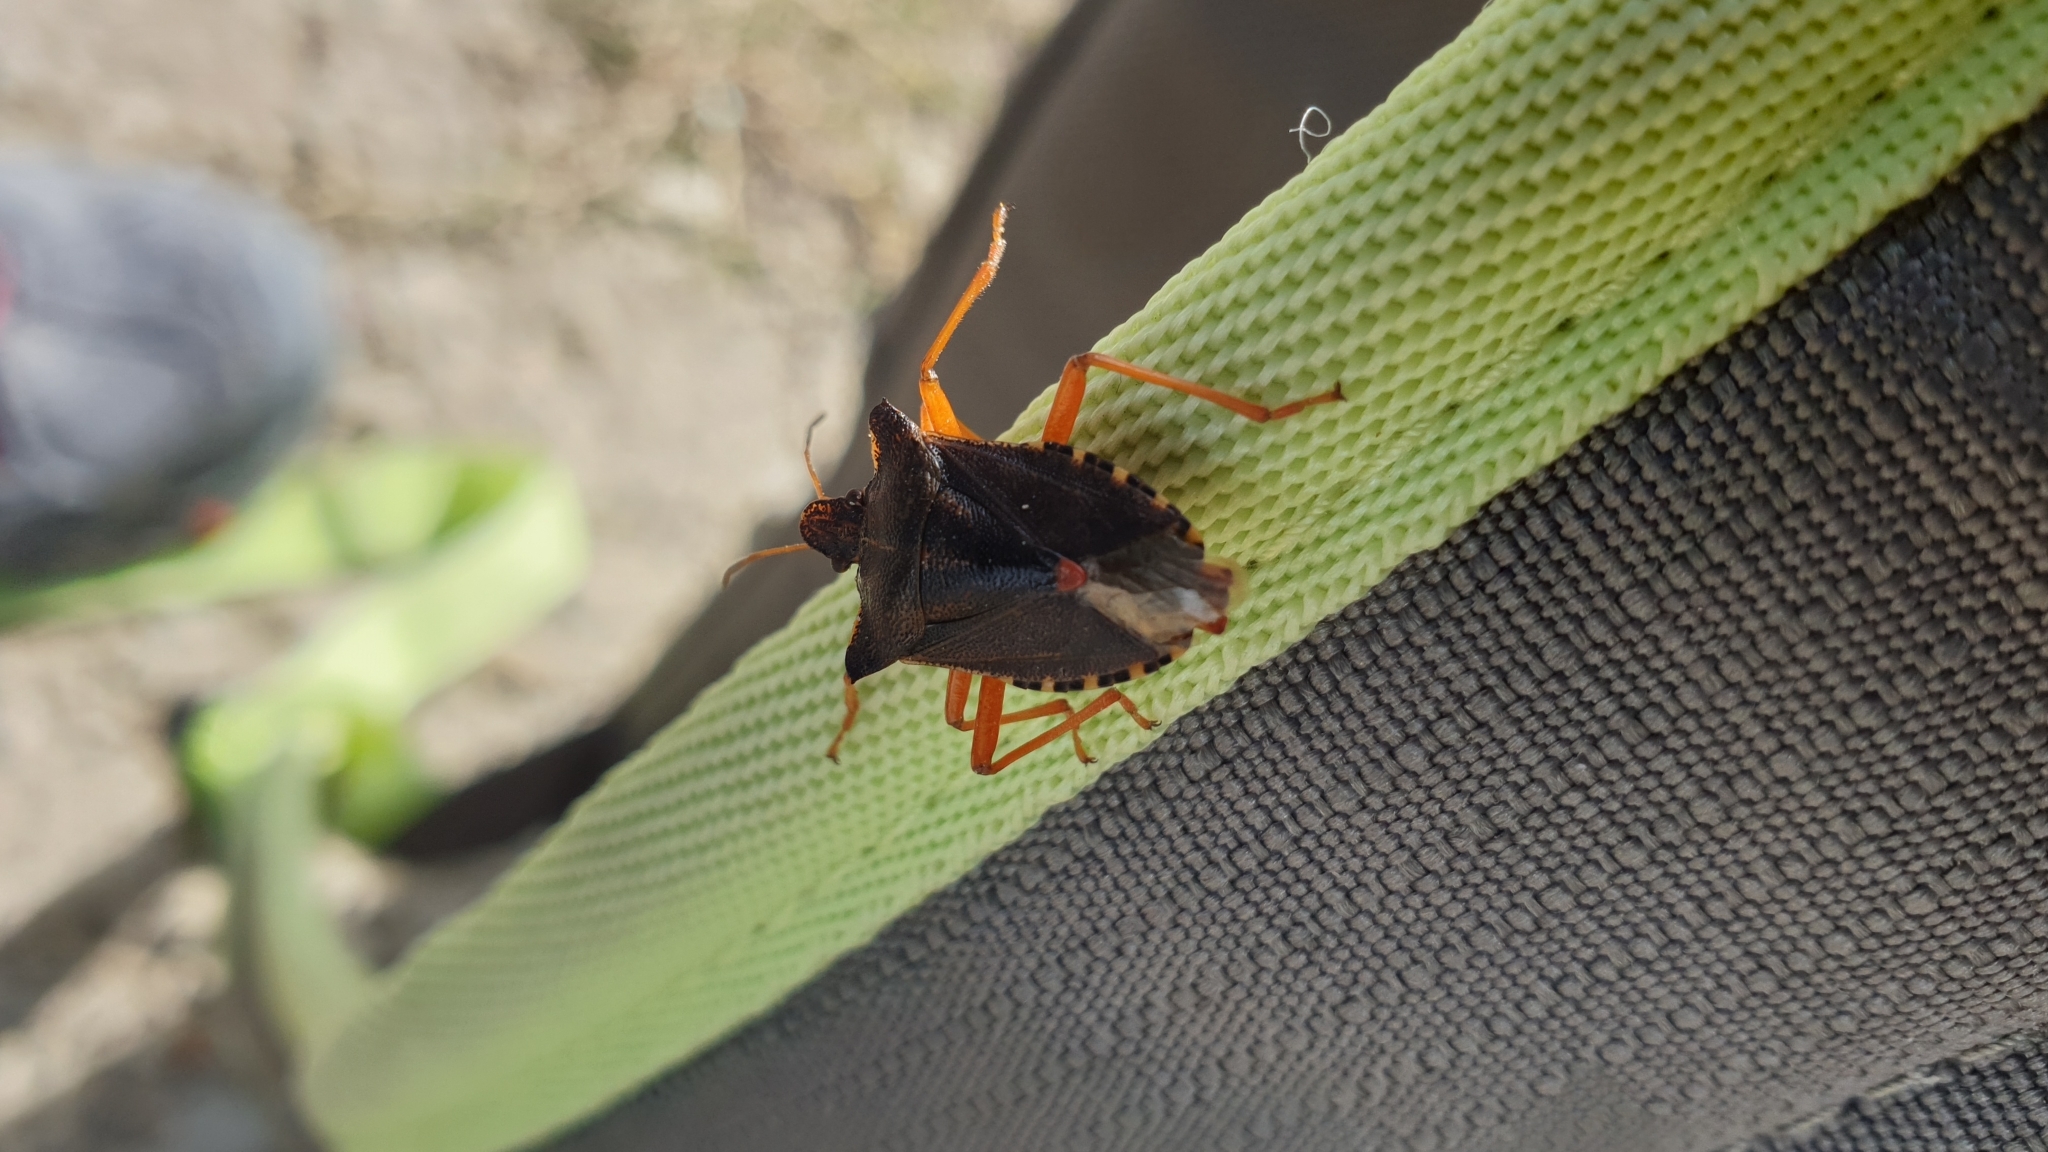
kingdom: Animalia
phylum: Arthropoda
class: Insecta
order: Hemiptera
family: Pentatomidae
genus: Pentatoma
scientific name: Pentatoma rufipes
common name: Forest bug
